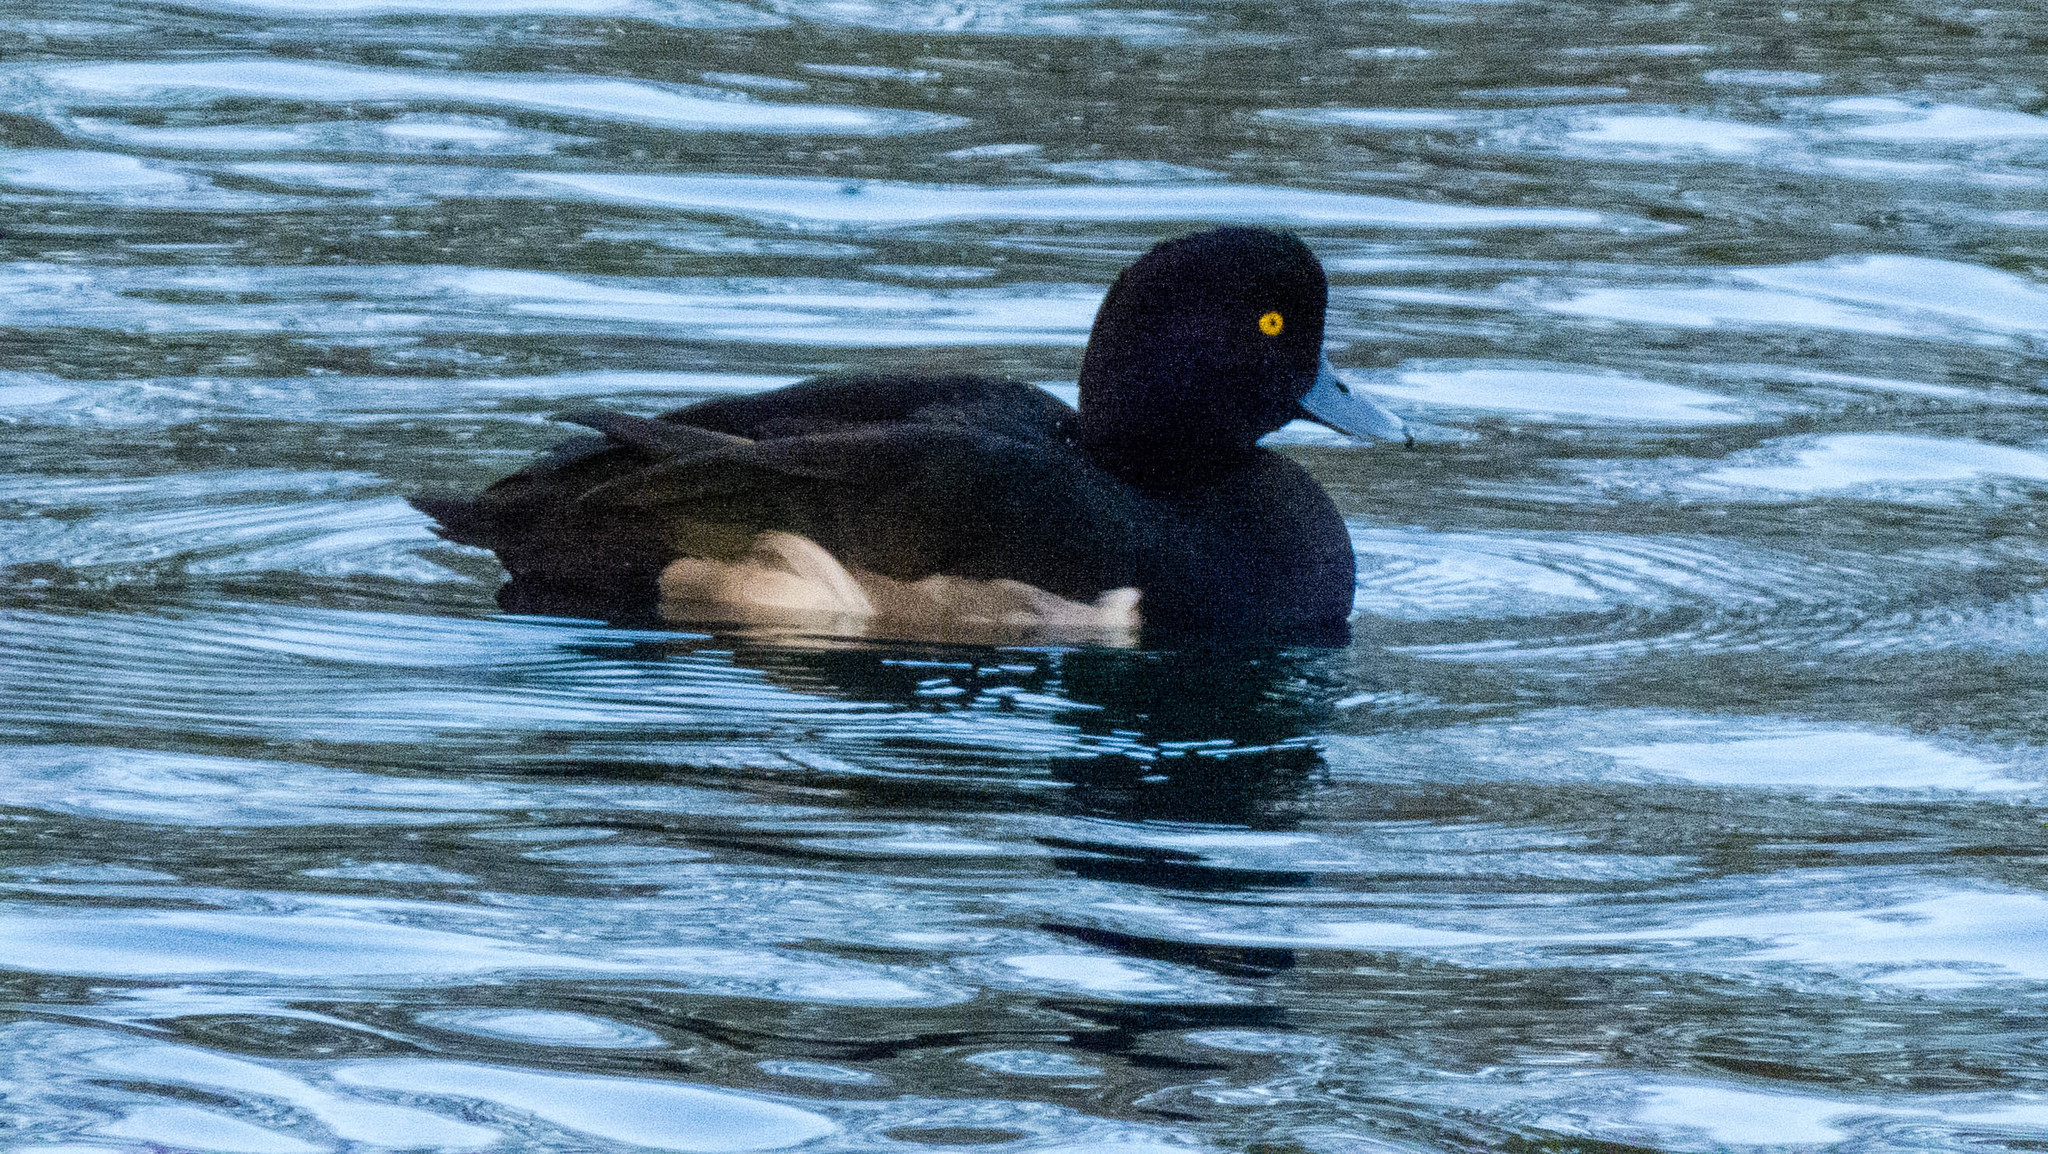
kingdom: Animalia
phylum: Chordata
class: Aves
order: Anseriformes
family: Anatidae
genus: Aythya
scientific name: Aythya fuligula
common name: Tufted duck
